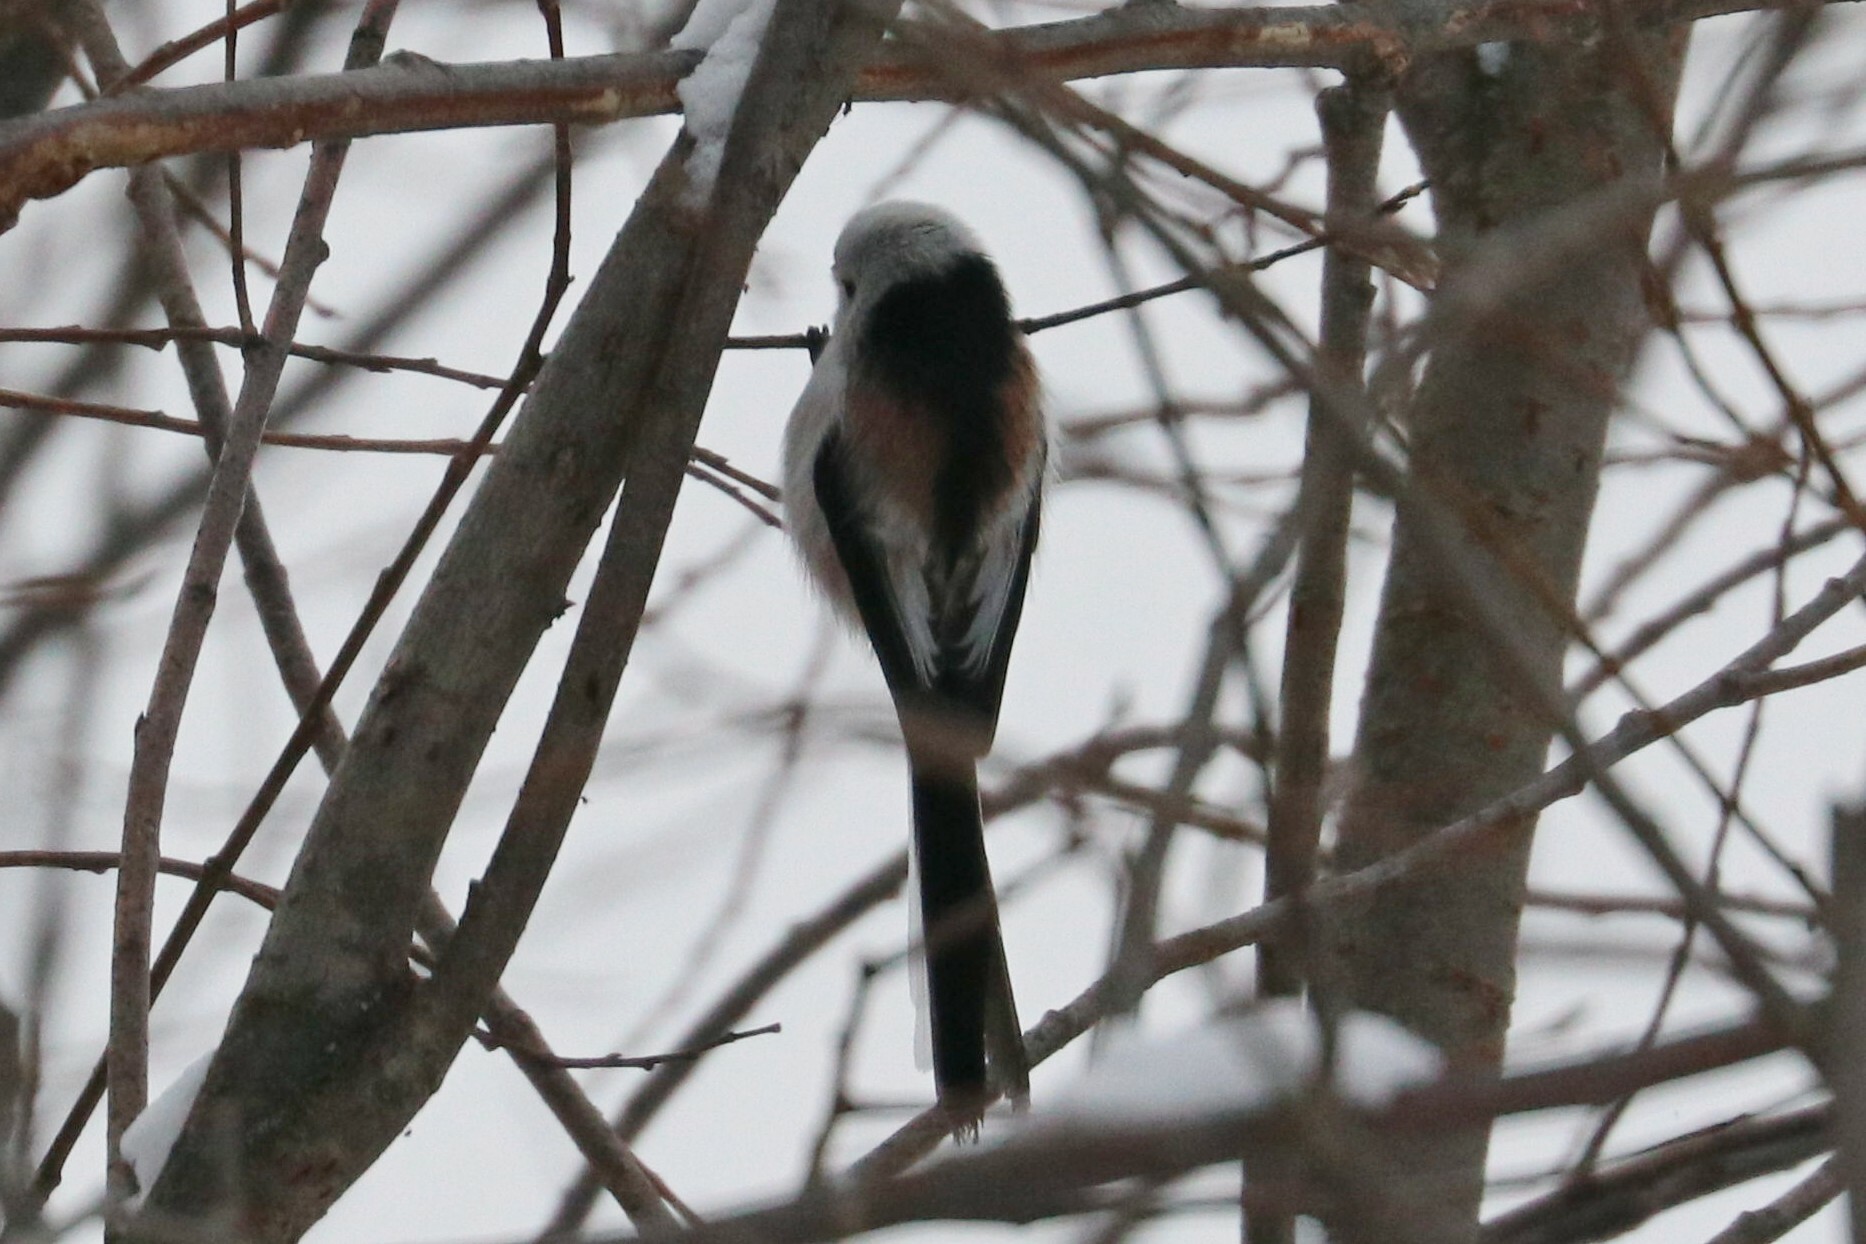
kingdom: Animalia
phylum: Chordata
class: Aves
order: Passeriformes
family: Aegithalidae
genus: Aegithalos
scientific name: Aegithalos caudatus
